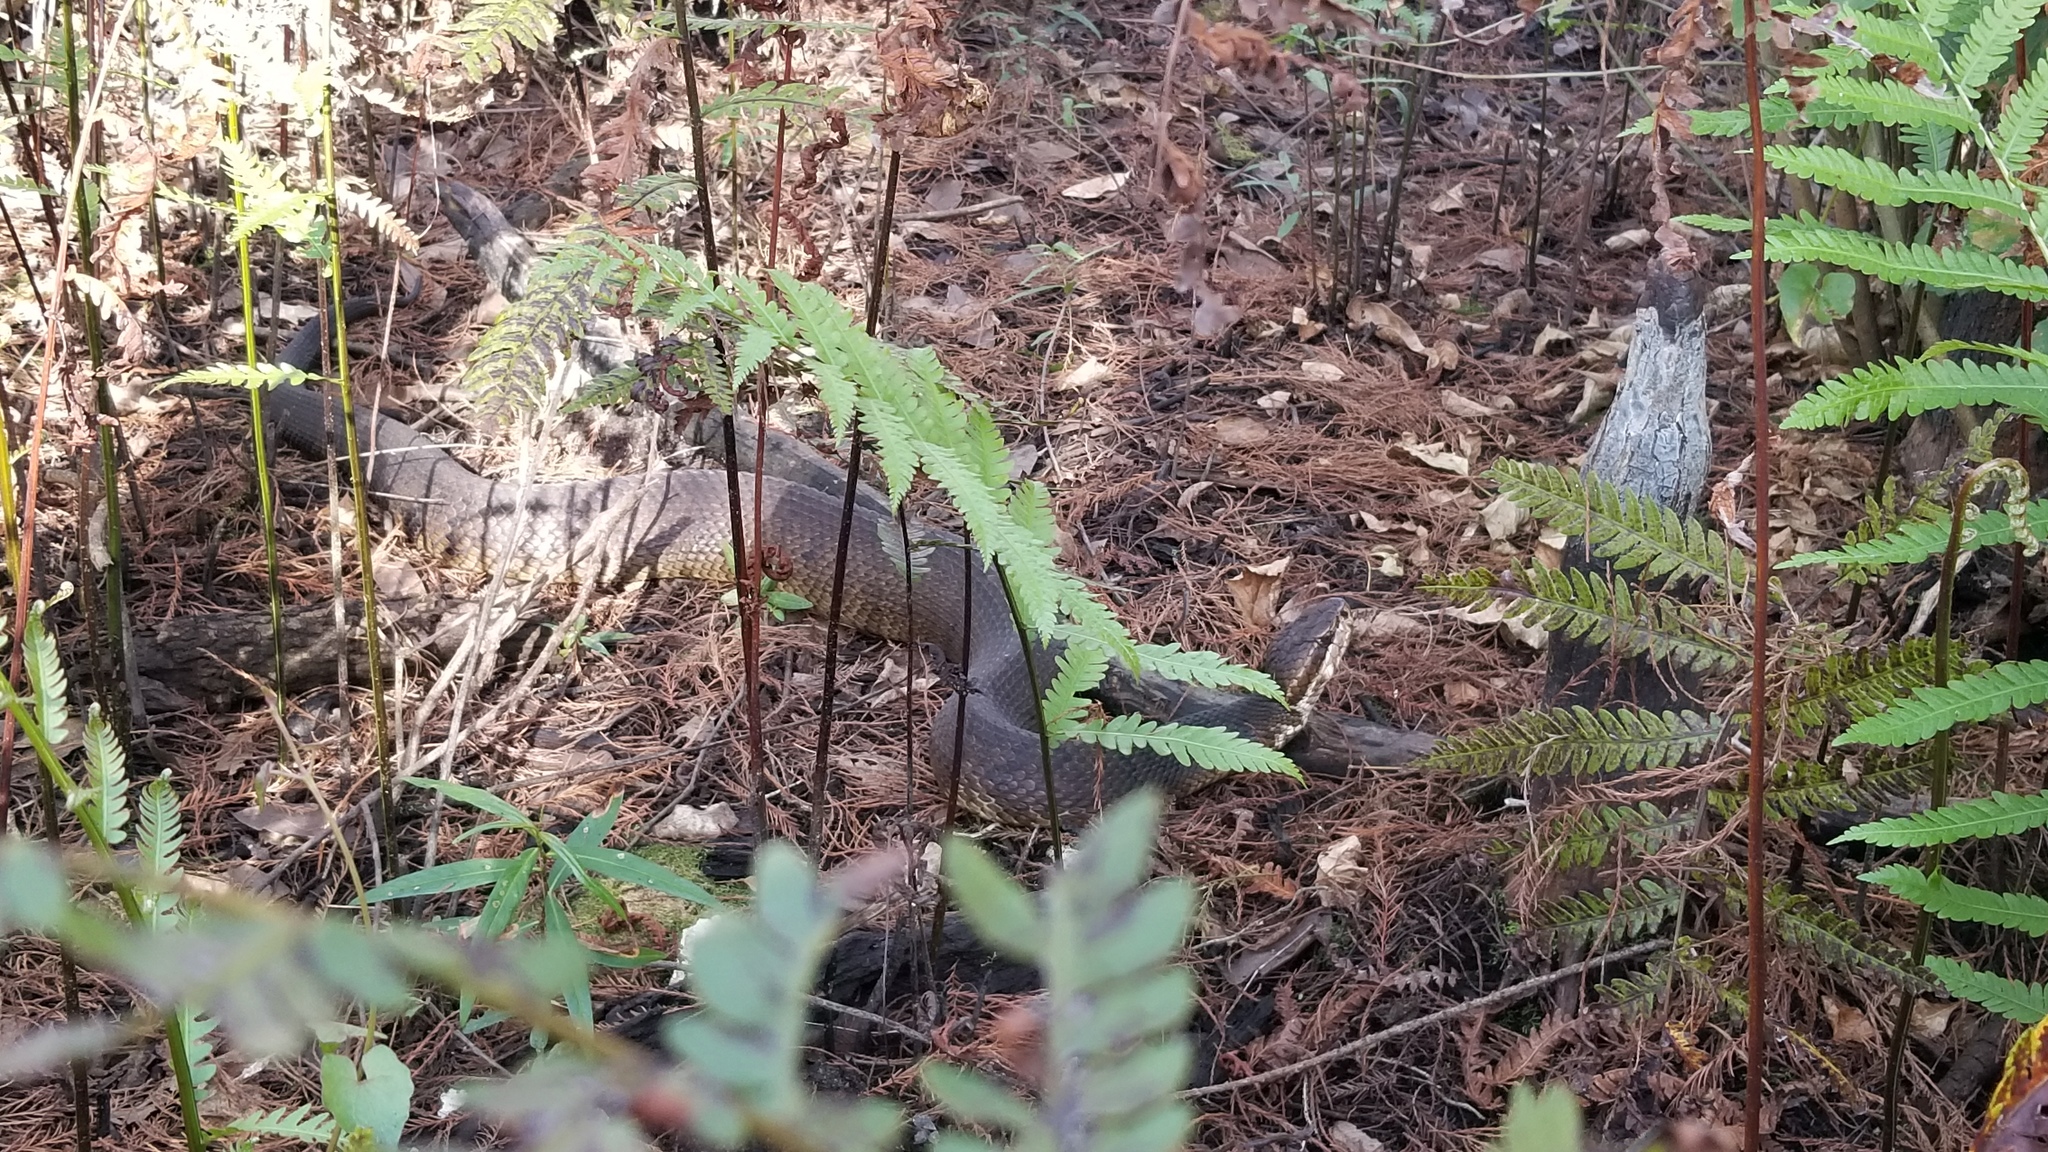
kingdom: Animalia
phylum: Chordata
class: Squamata
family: Viperidae
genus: Agkistrodon
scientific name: Agkistrodon conanti
